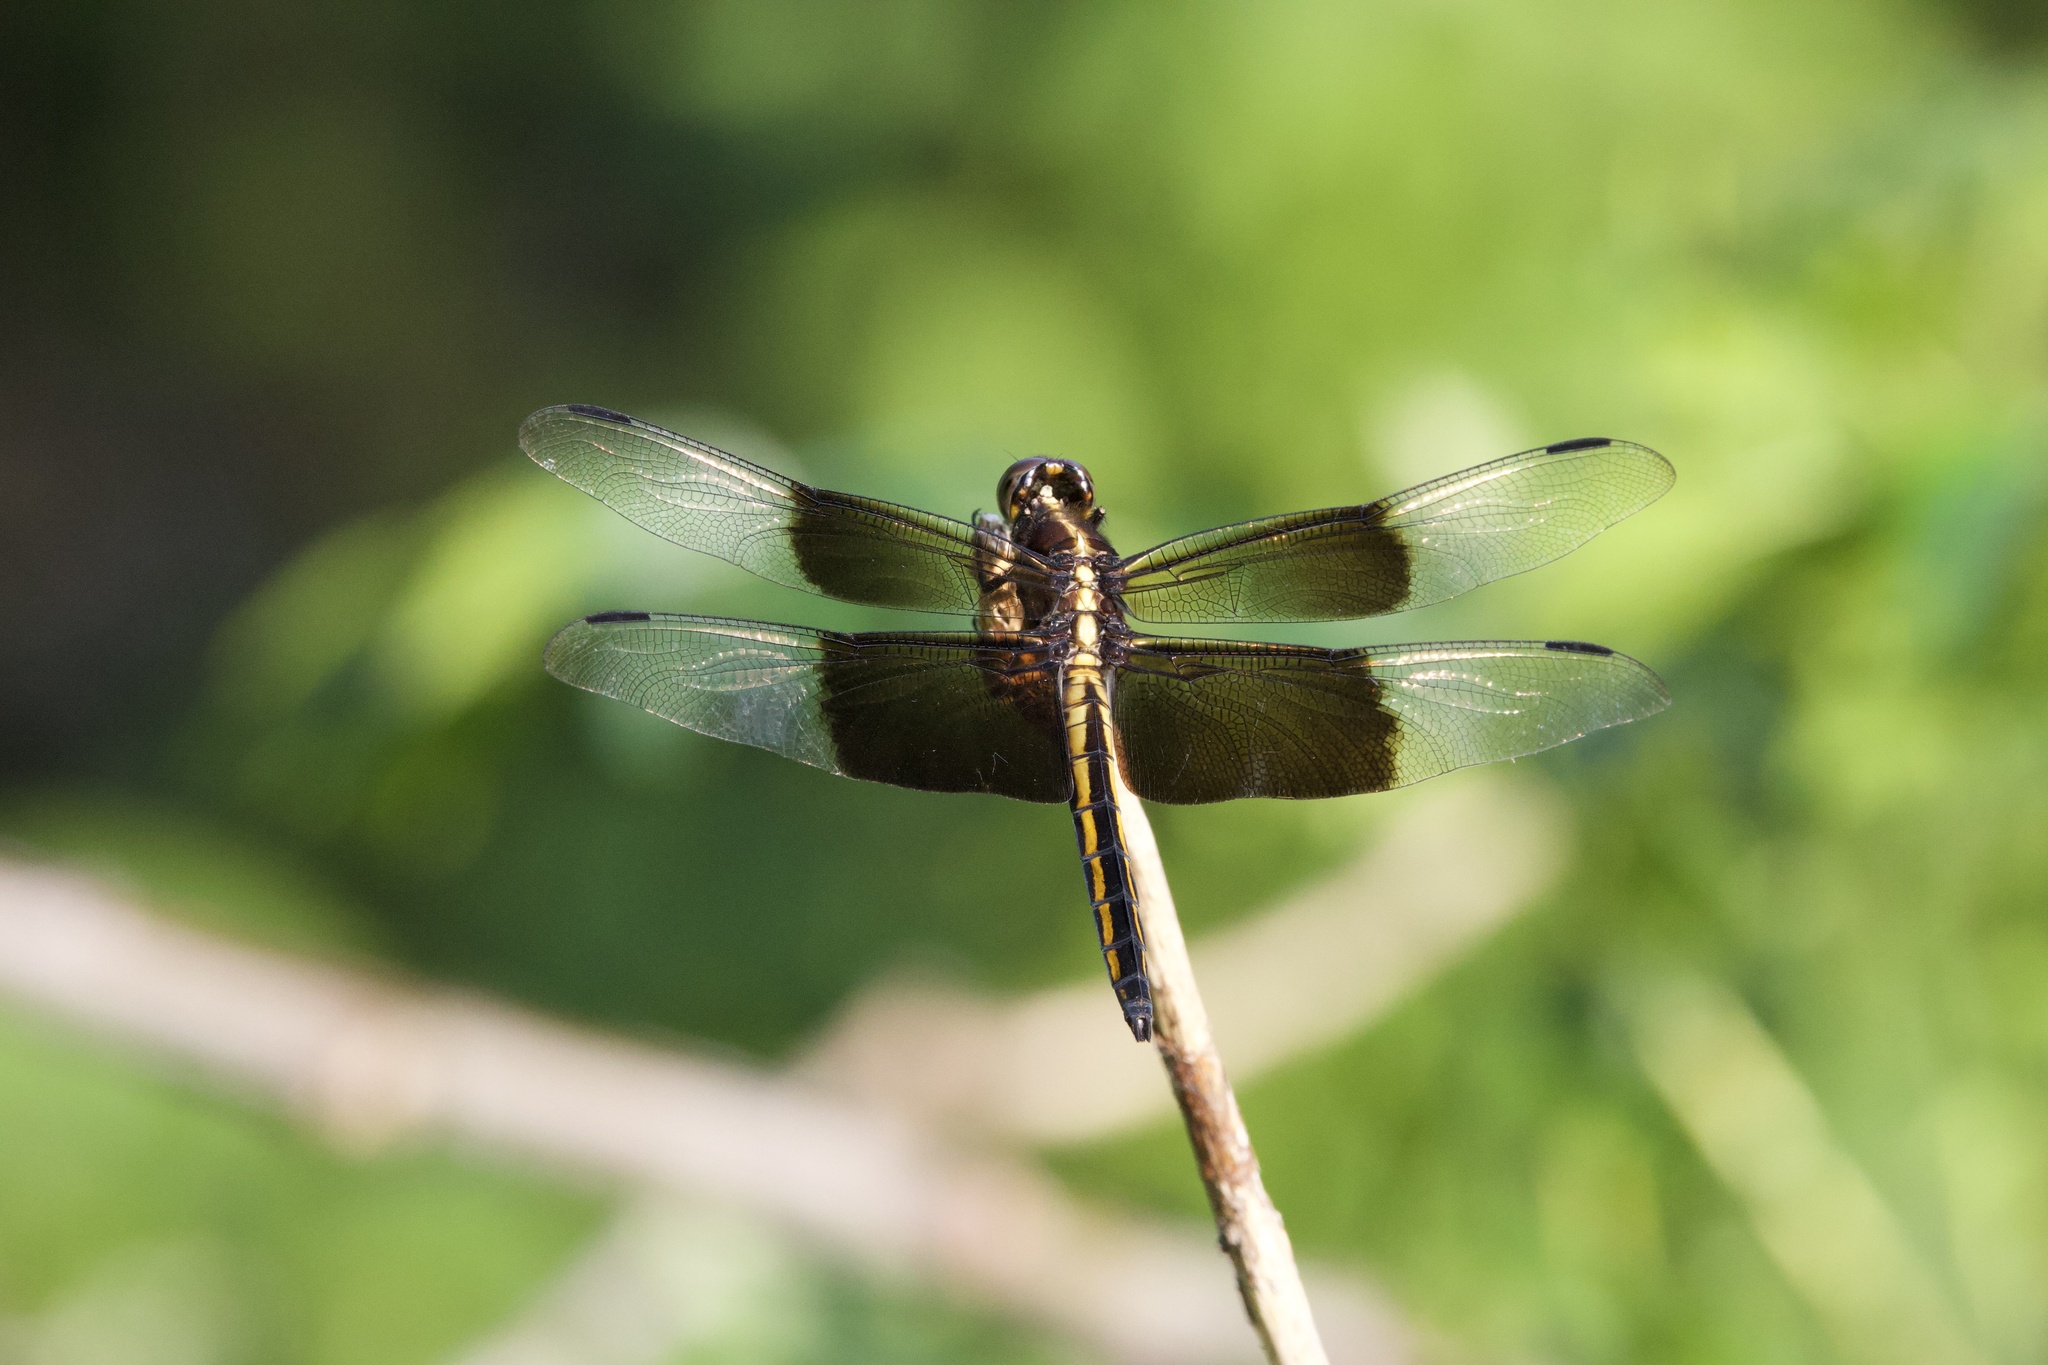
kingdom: Animalia
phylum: Arthropoda
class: Insecta
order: Odonata
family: Libellulidae
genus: Libellula
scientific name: Libellula luctuosa
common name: Widow skimmer
